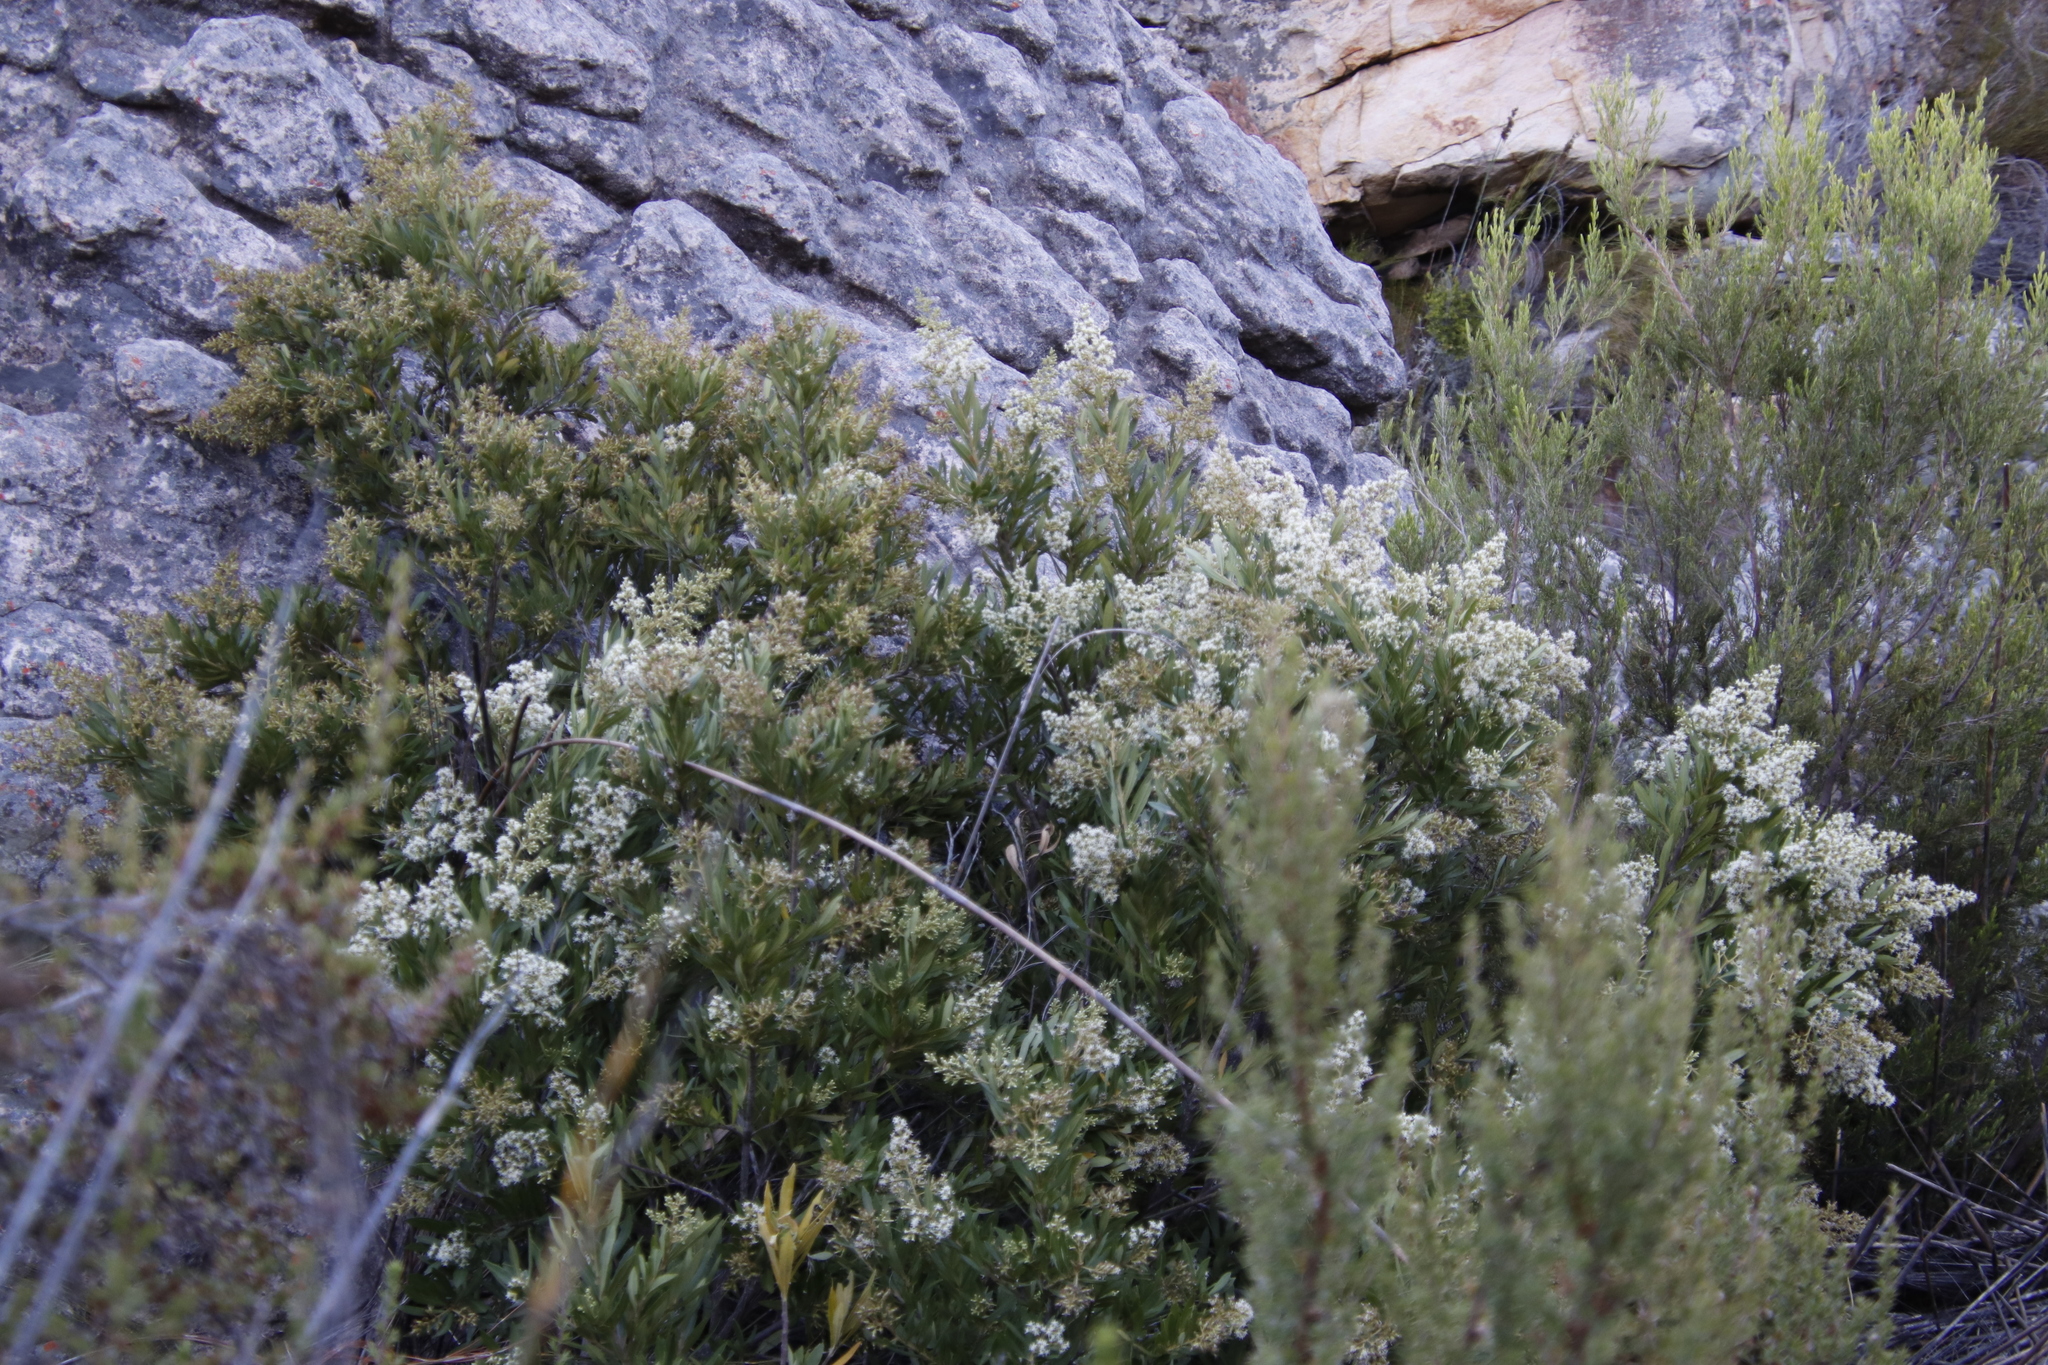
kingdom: Plantae
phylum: Tracheophyta
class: Magnoliopsida
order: Asterales
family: Asteraceae
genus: Brachylaena
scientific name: Brachylaena neriifolia
